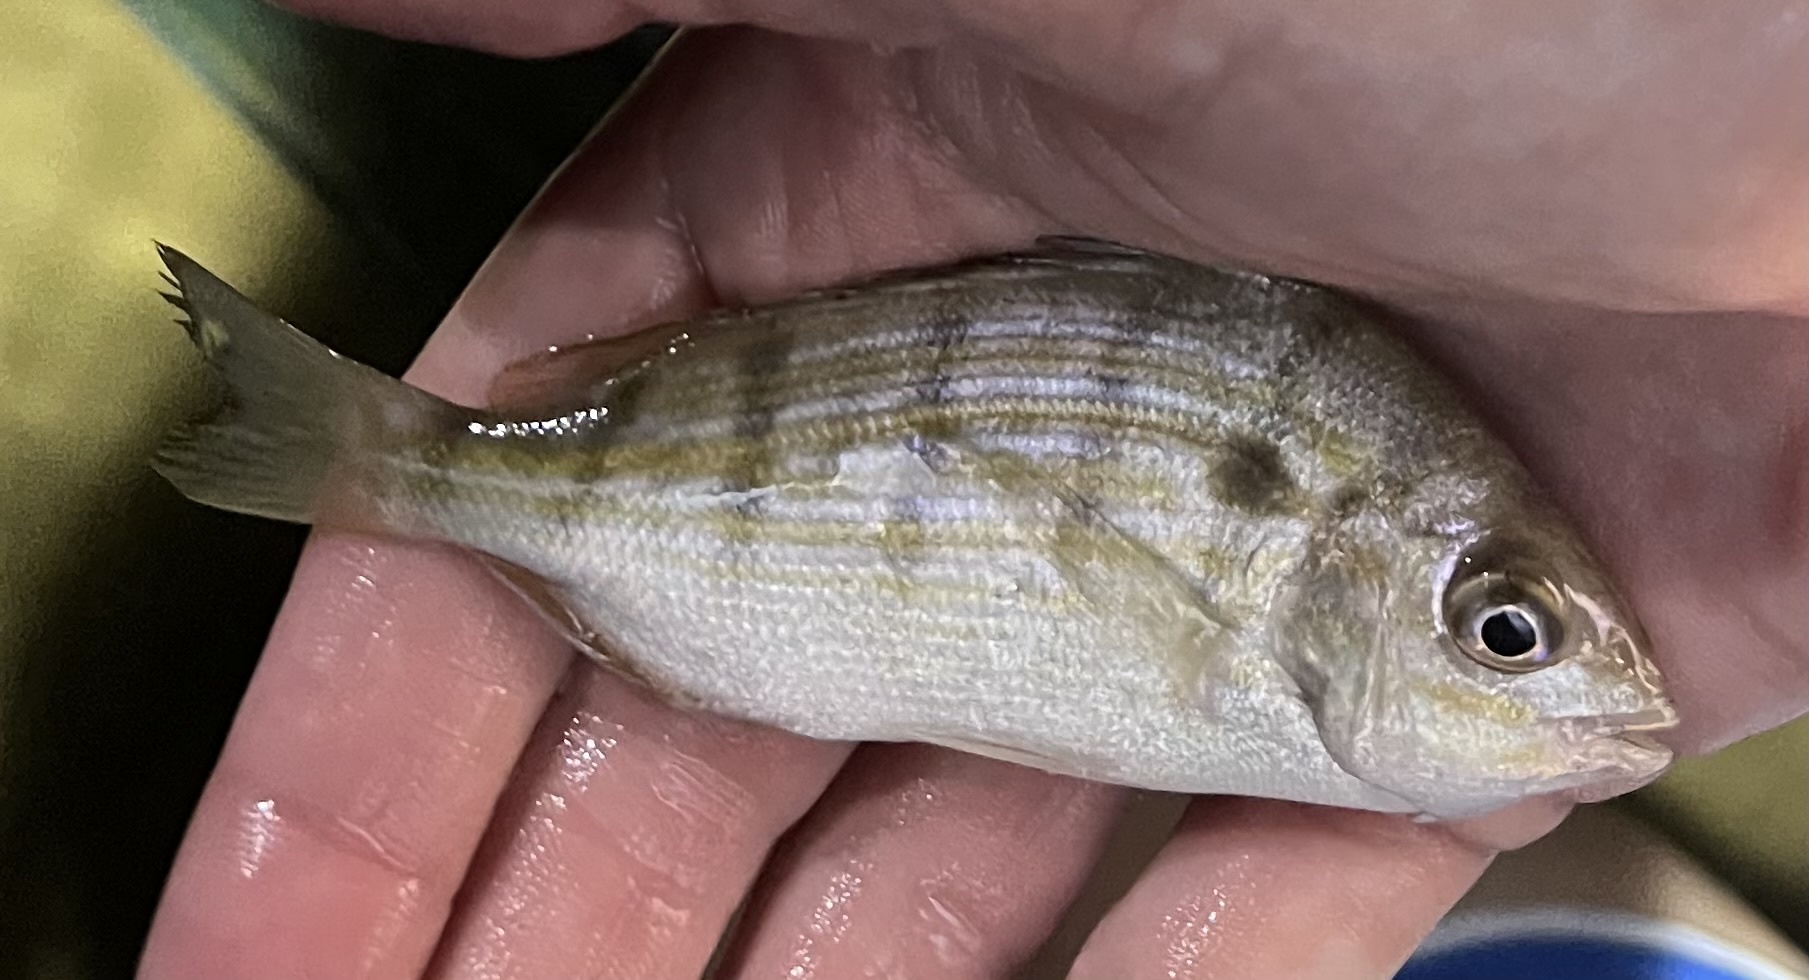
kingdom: Animalia
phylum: Chordata
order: Perciformes
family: Sparidae
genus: Lagodon
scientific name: Lagodon rhomboides
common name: Pinfish
